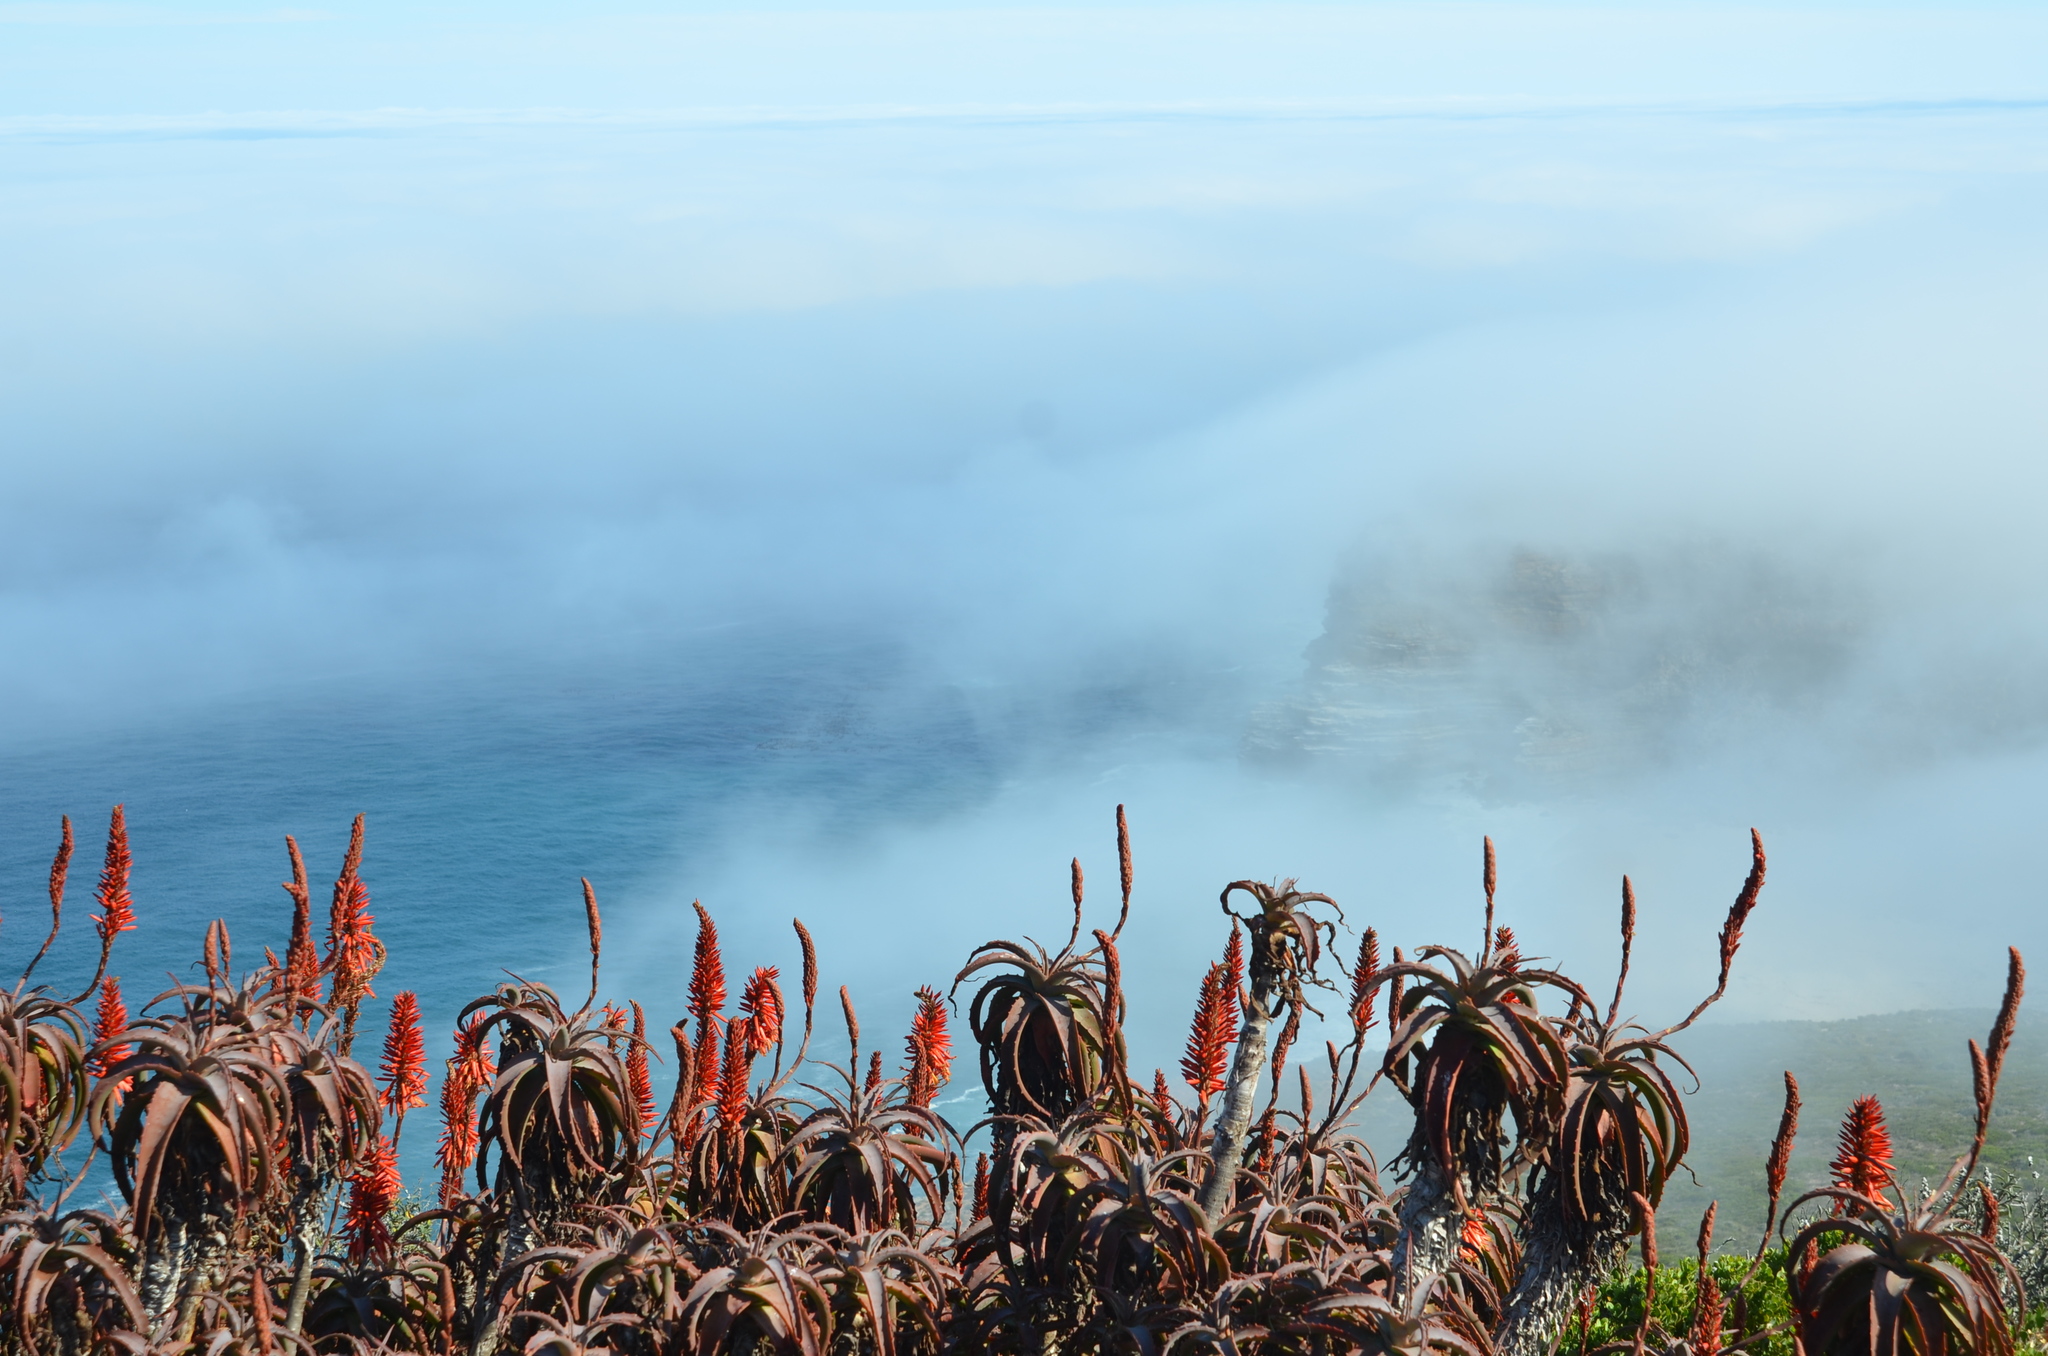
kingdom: Plantae
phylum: Tracheophyta
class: Liliopsida
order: Asparagales
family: Asphodelaceae
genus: Aloe
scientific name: Aloe arborescens
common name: Candelabra aloe
